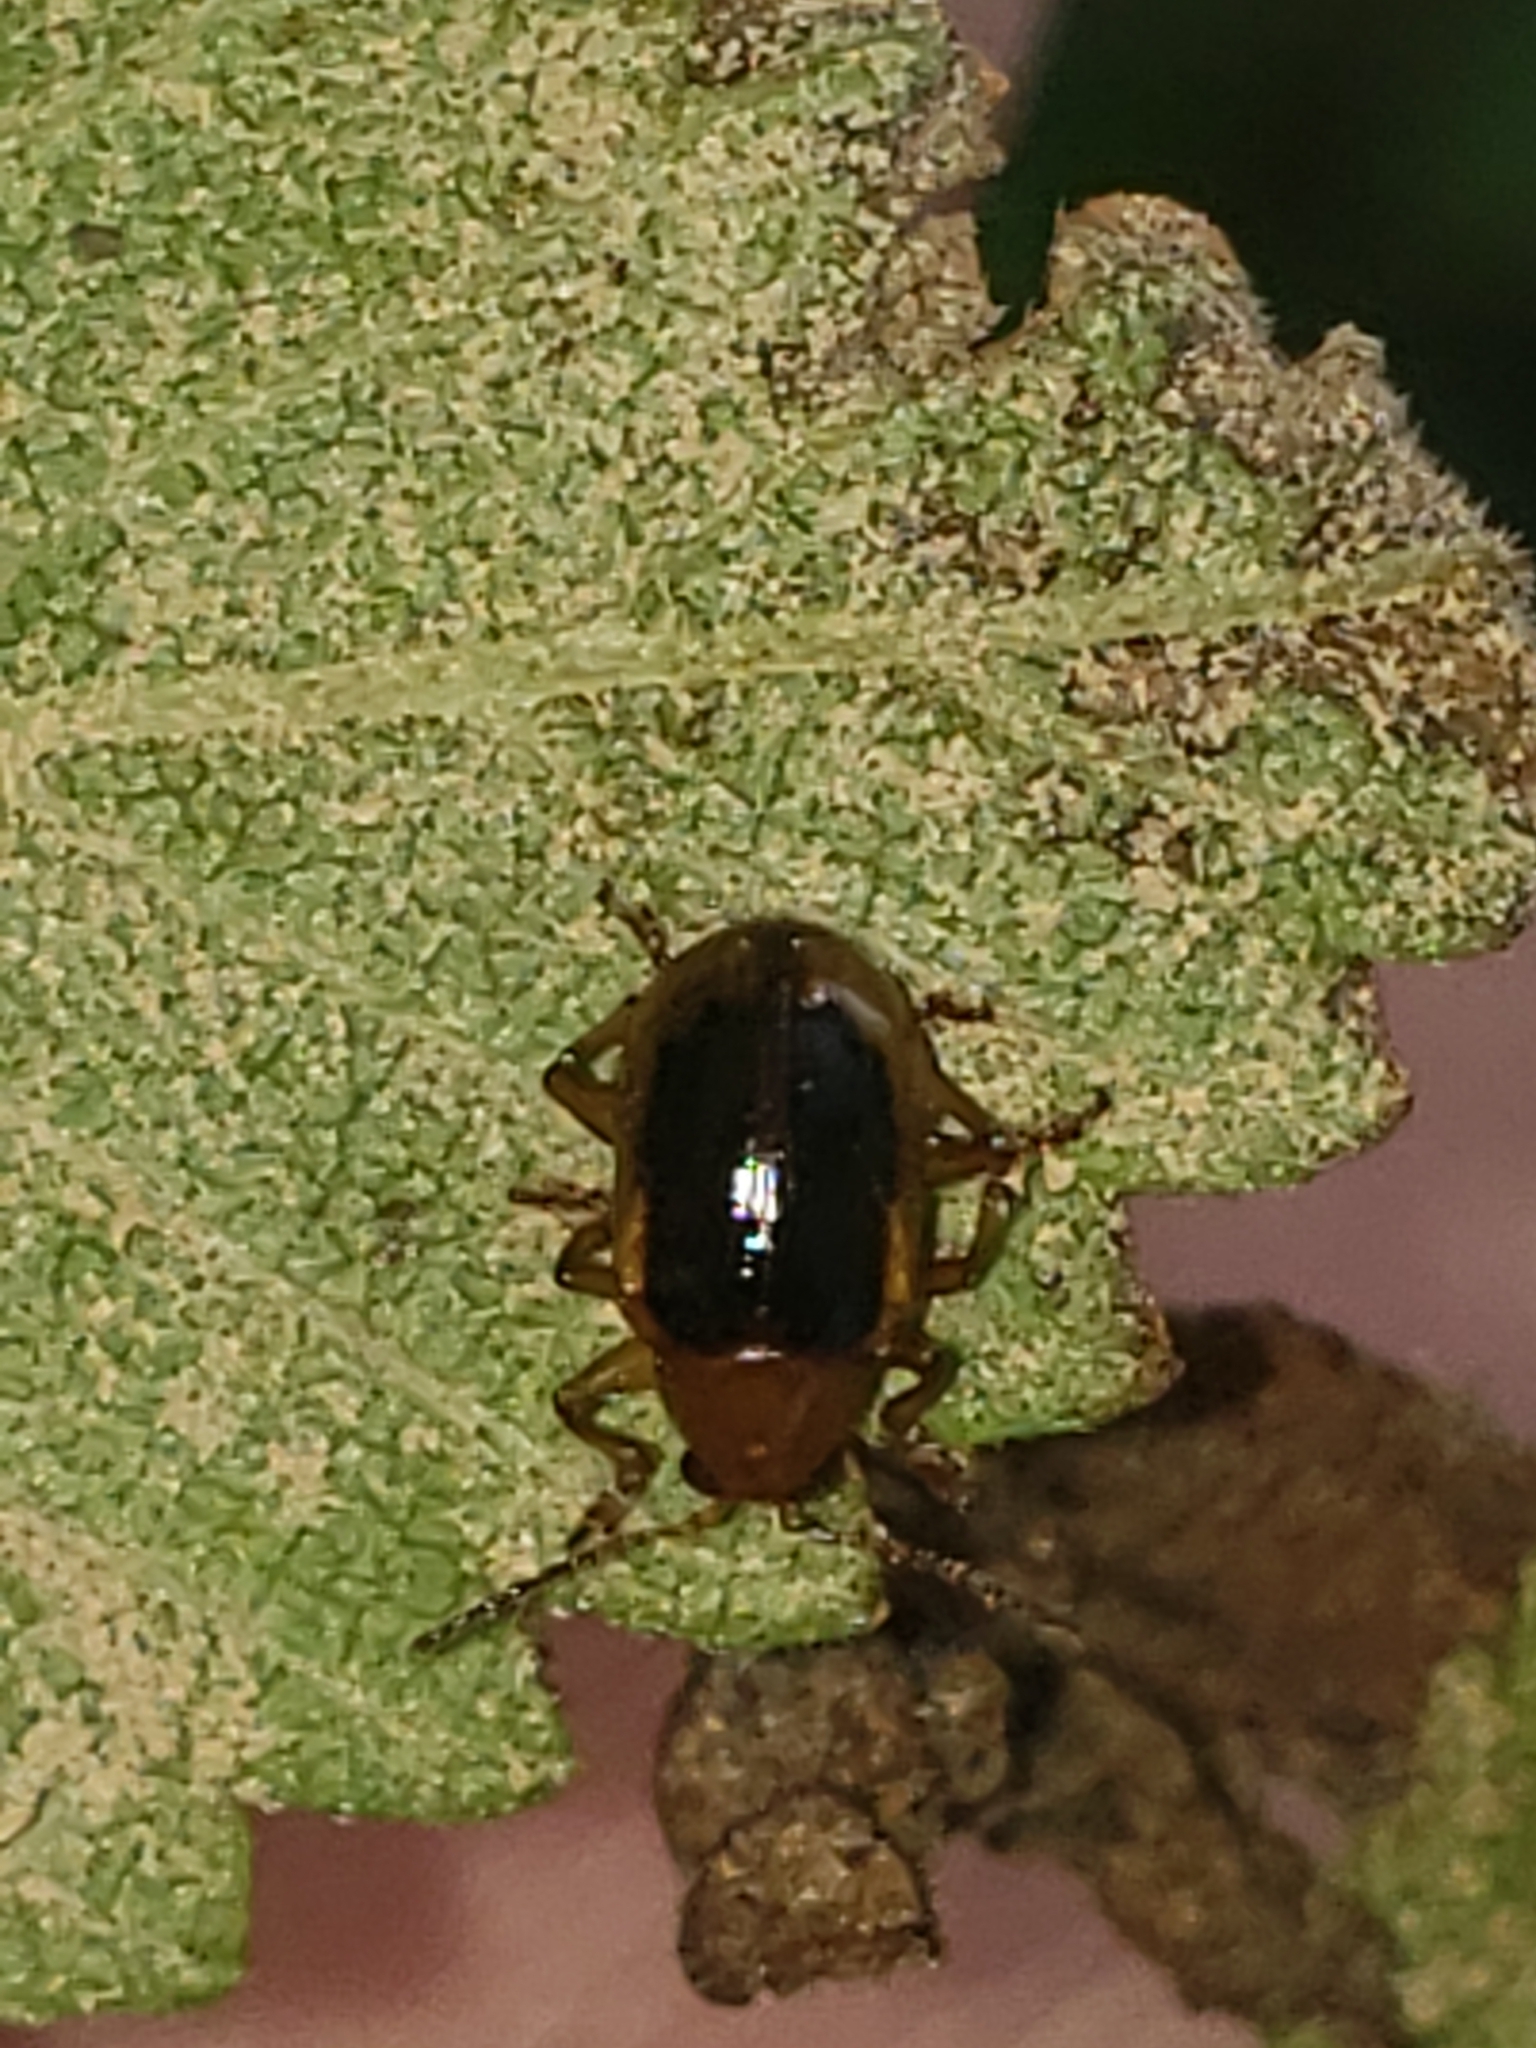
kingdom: Animalia
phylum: Arthropoda
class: Insecta
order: Coleoptera
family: Chrysomelidae
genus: Capraita
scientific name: Capraita circumdata
